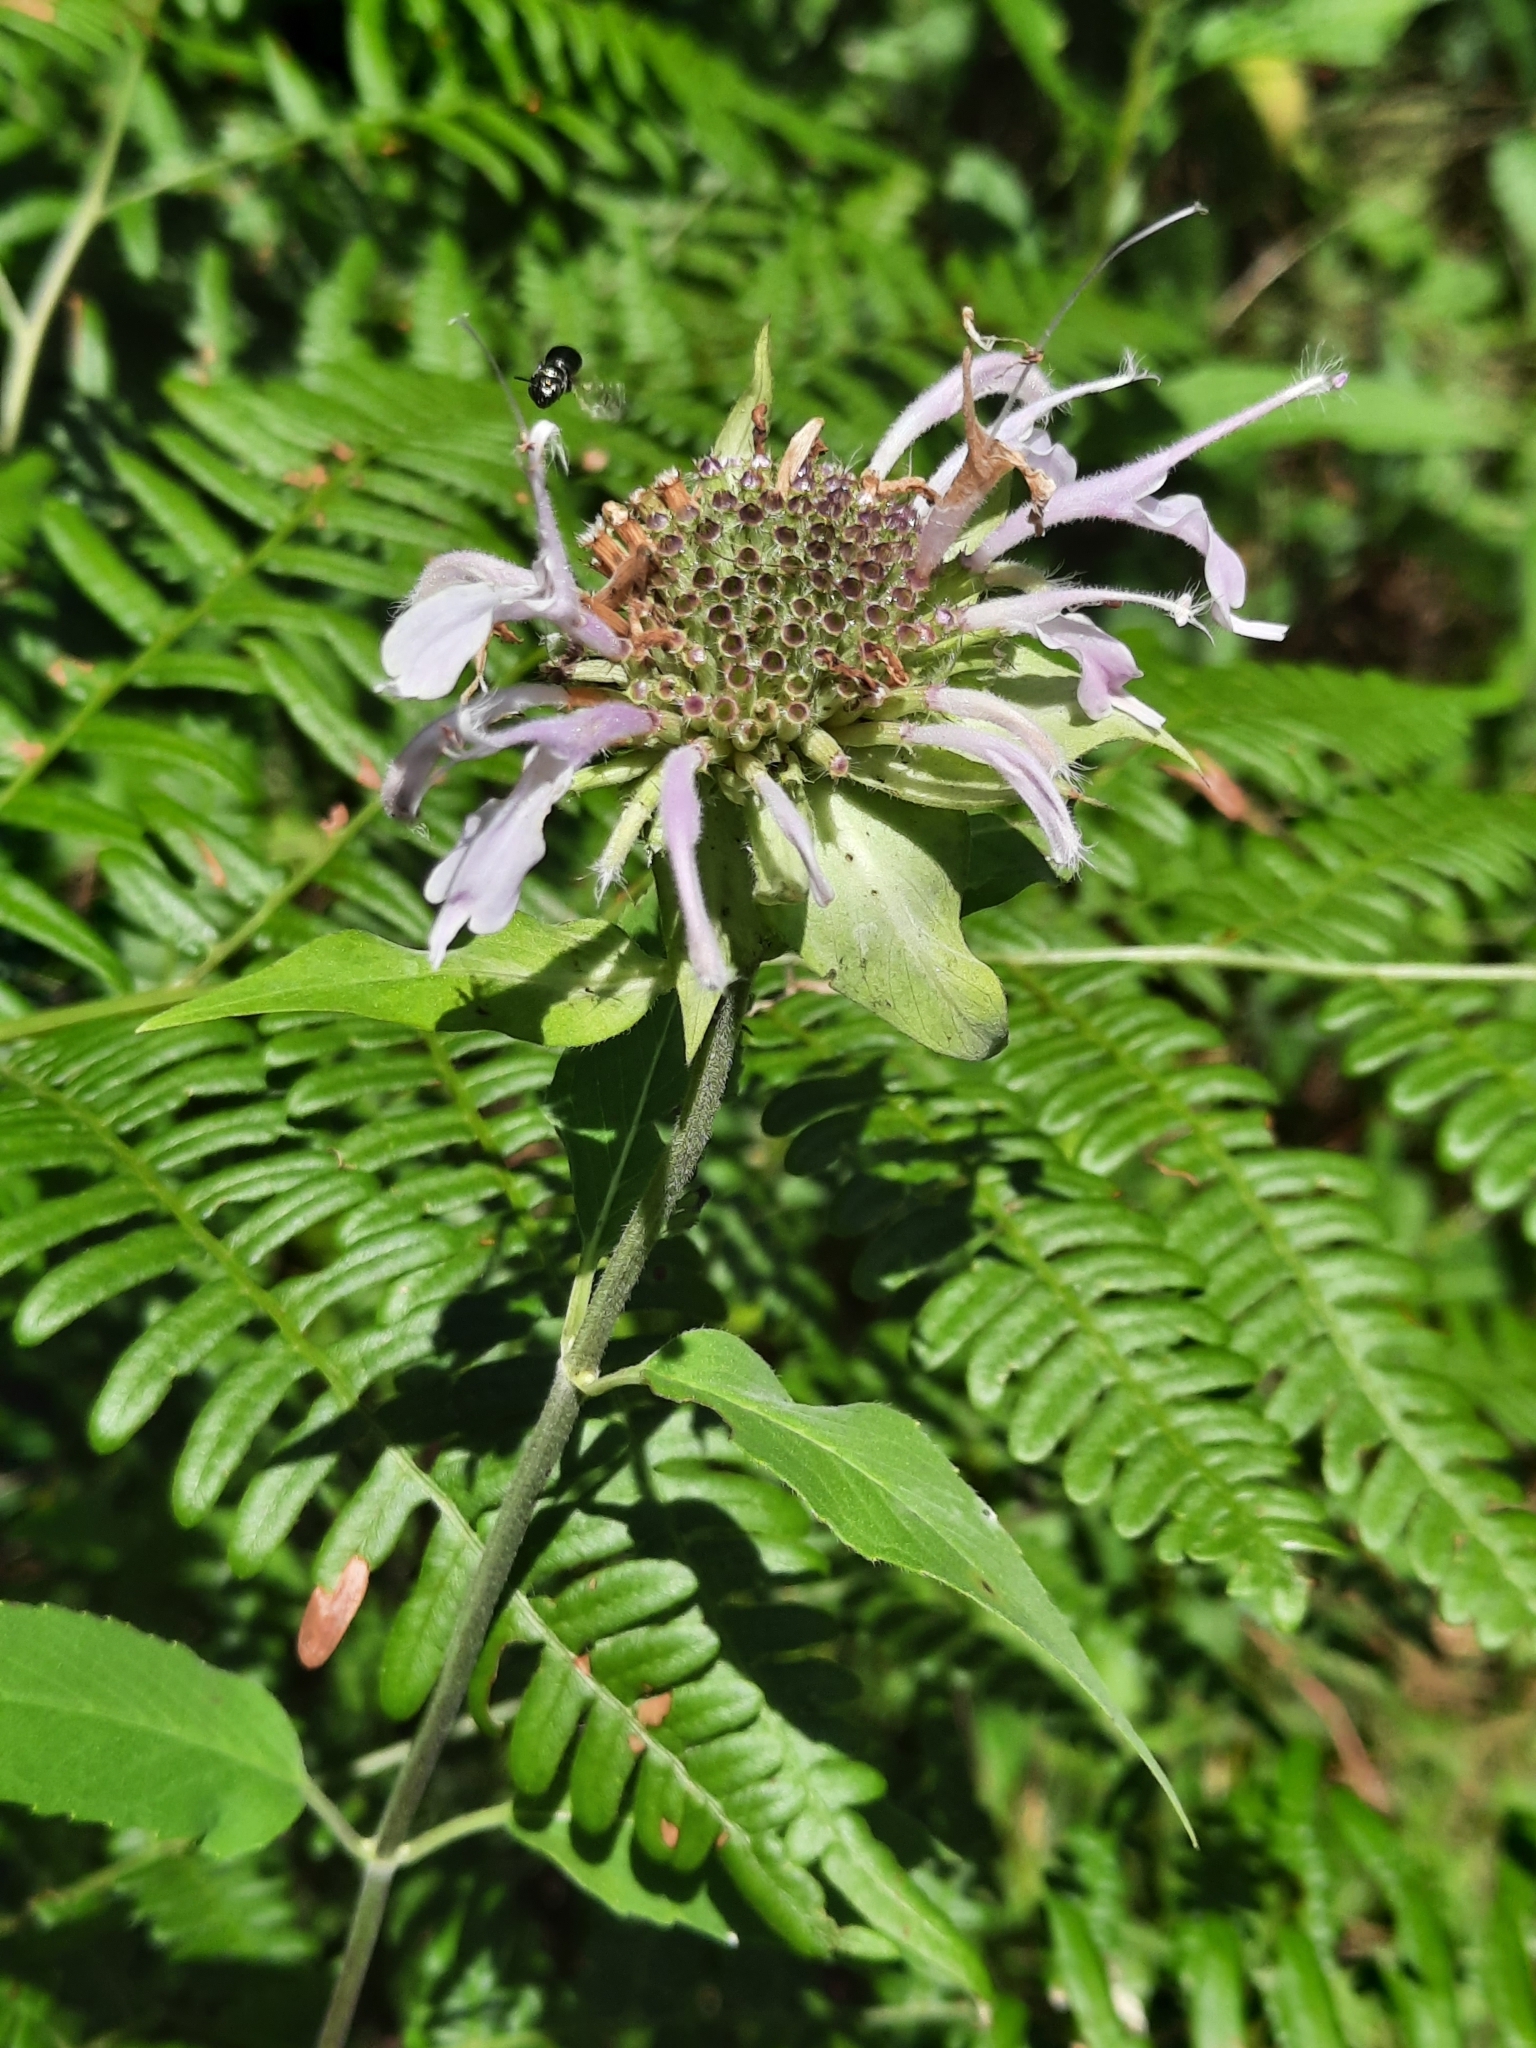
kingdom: Plantae
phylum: Tracheophyta
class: Magnoliopsida
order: Lamiales
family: Lamiaceae
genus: Monarda
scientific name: Monarda fistulosa
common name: Purple beebalm
